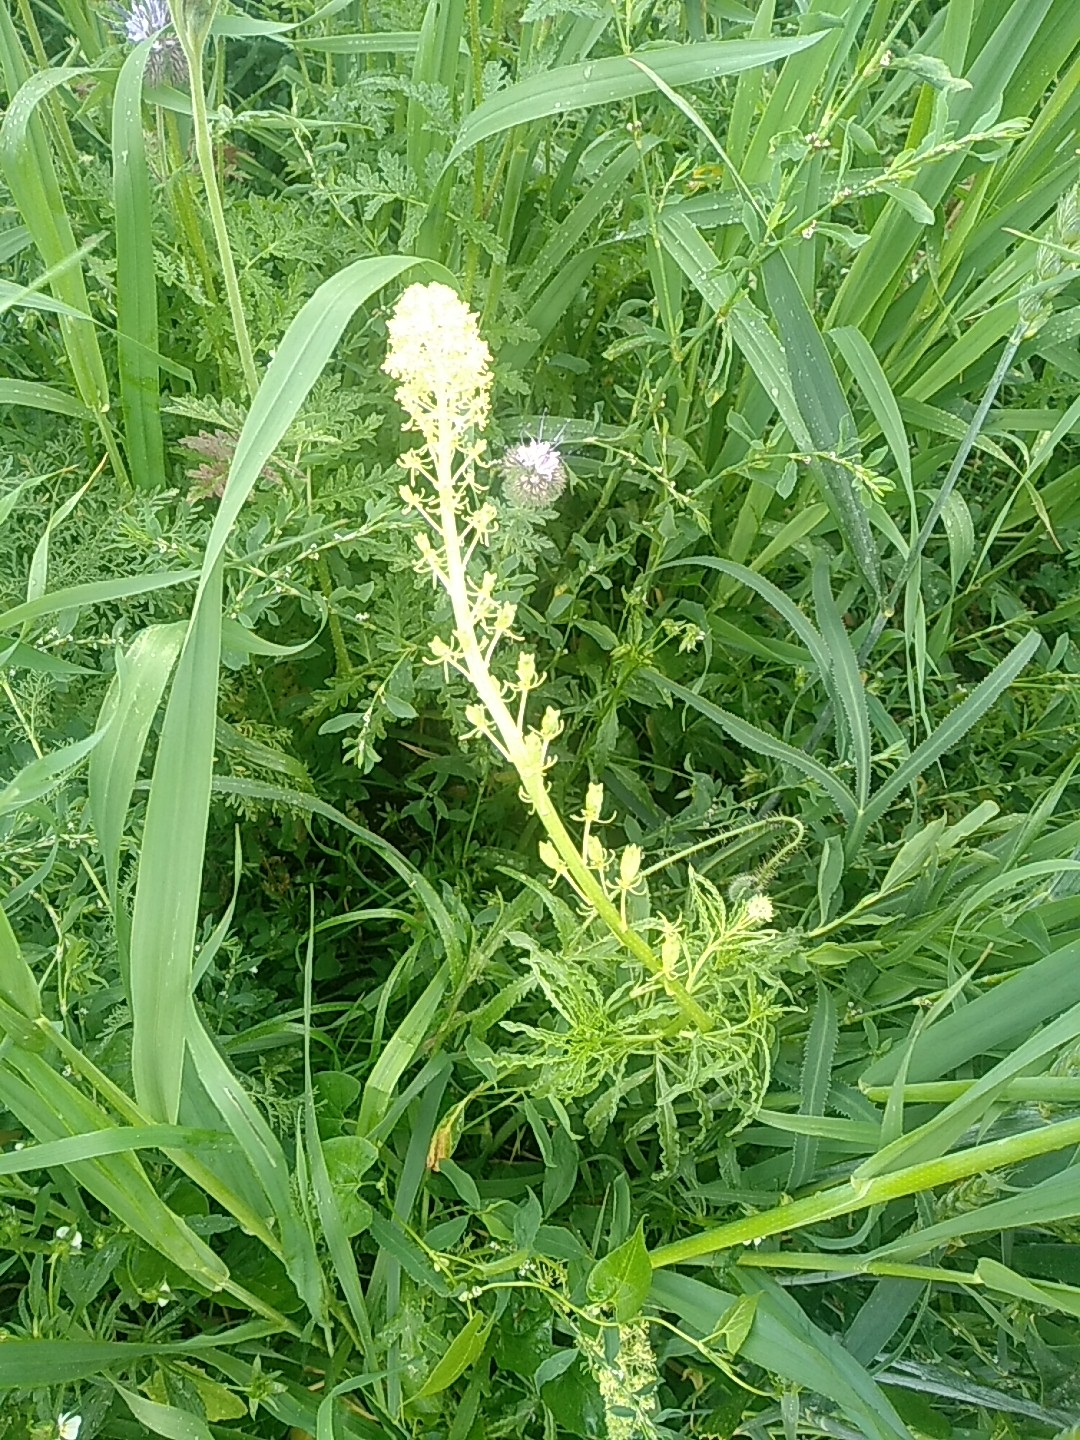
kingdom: Plantae
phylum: Tracheophyta
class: Magnoliopsida
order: Brassicales
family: Resedaceae
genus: Reseda
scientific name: Reseda lutea
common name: Wild mignonette
